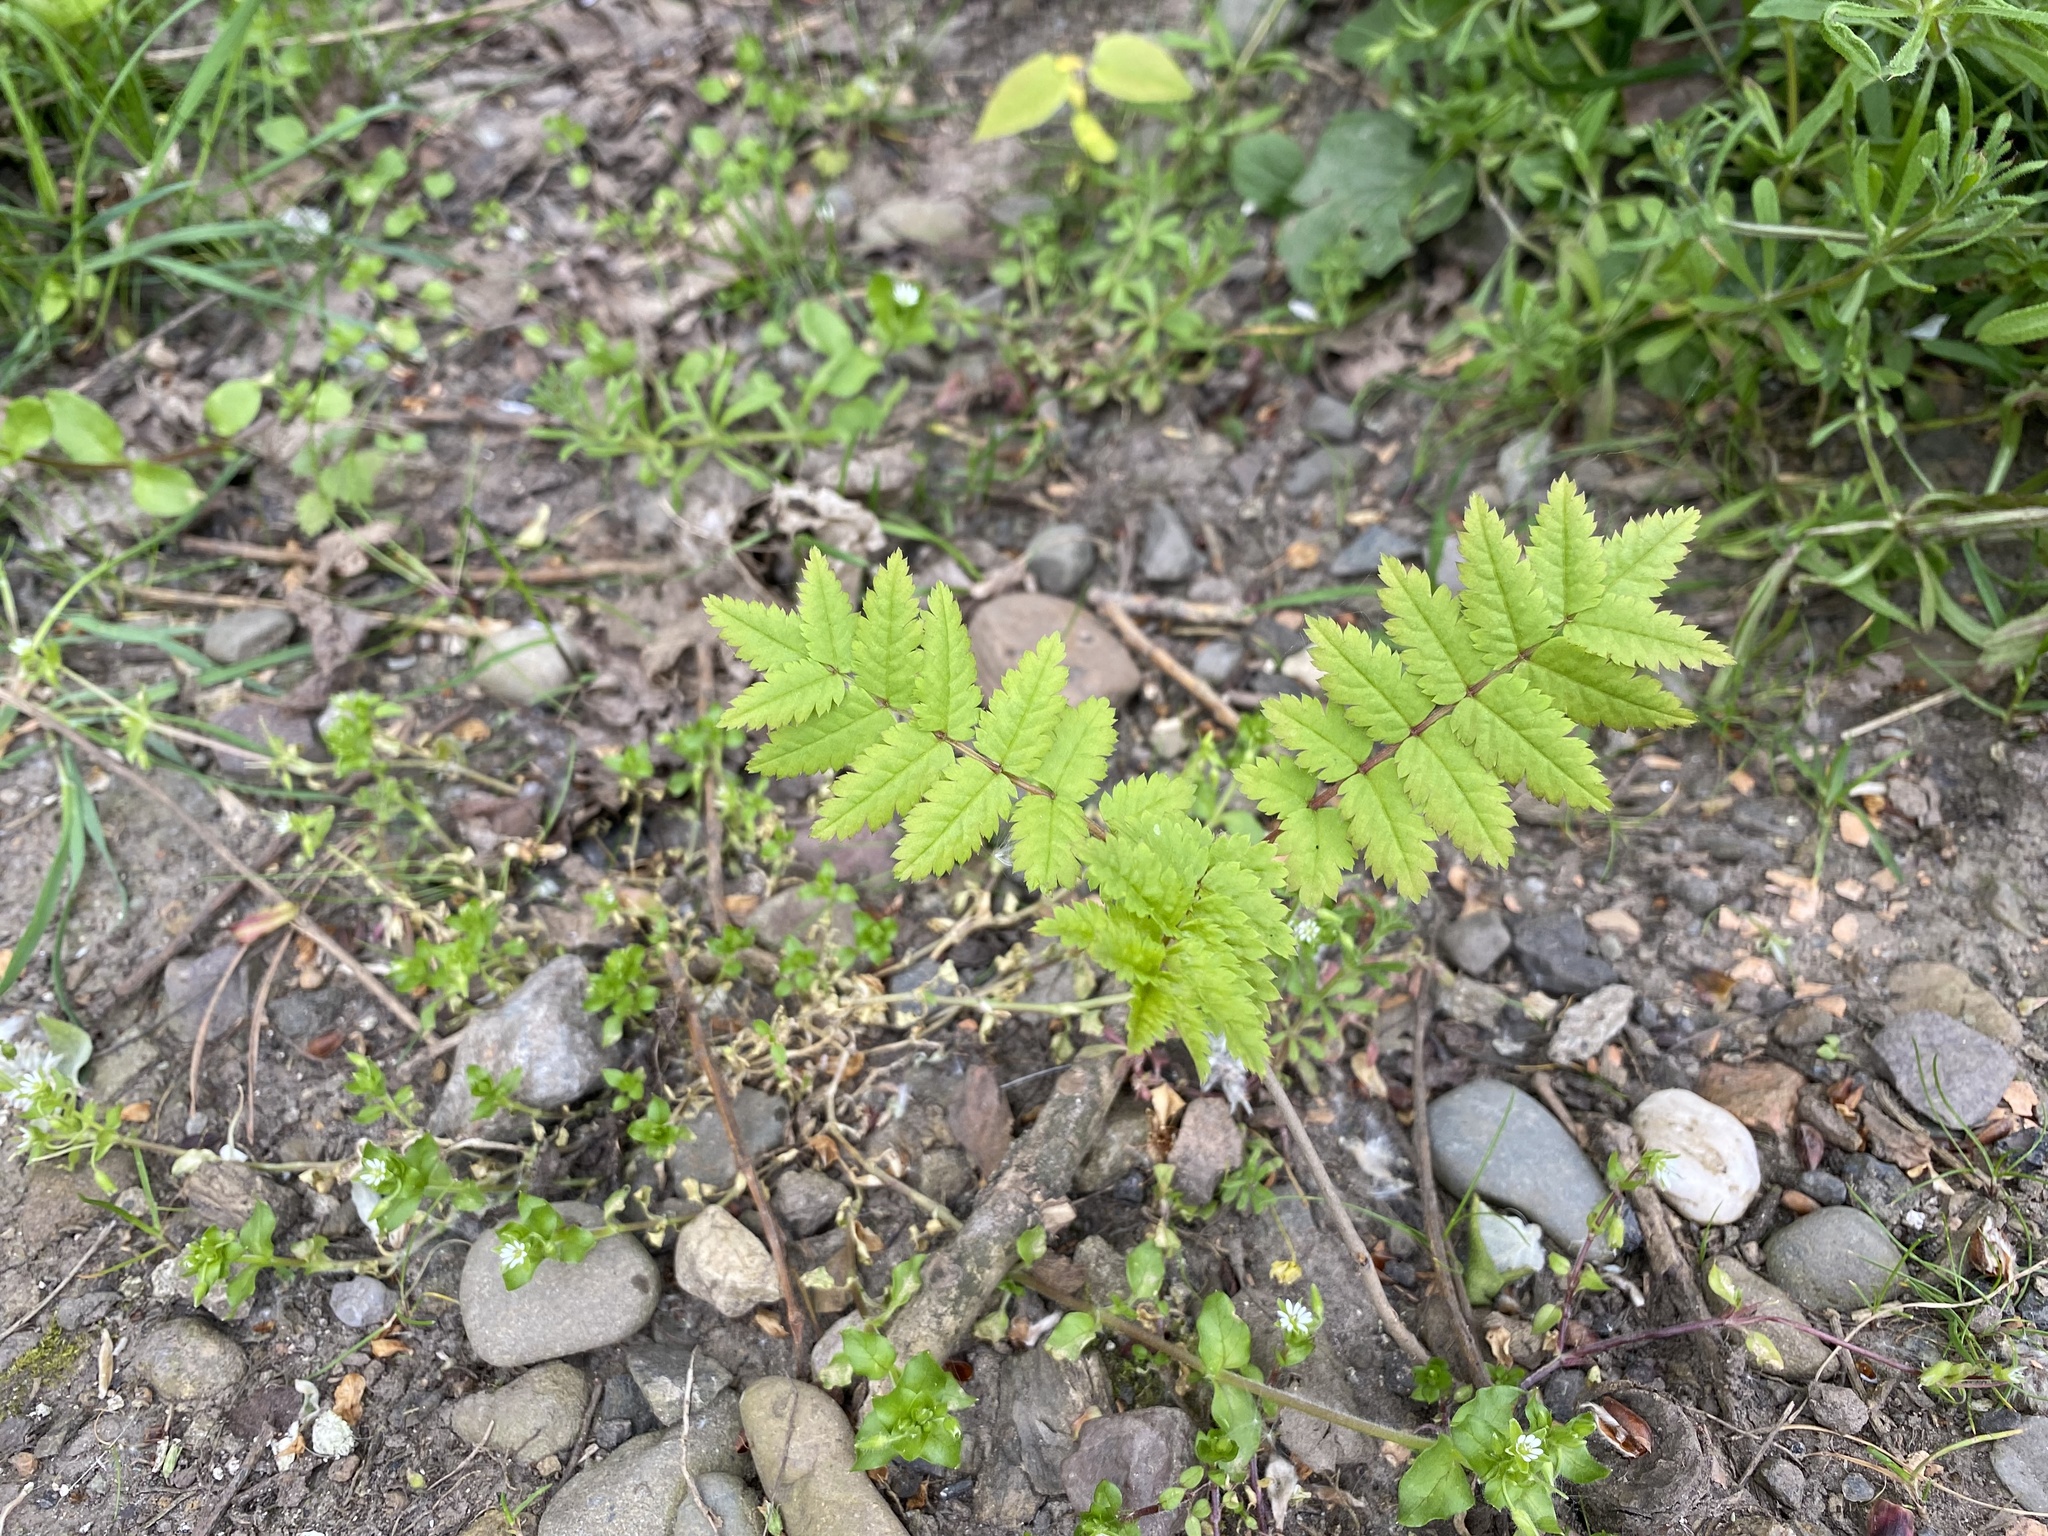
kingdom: Plantae
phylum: Tracheophyta
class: Magnoliopsida
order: Rosales
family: Rosaceae
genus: Sorbus
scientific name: Sorbus aucuparia
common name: Rowan
